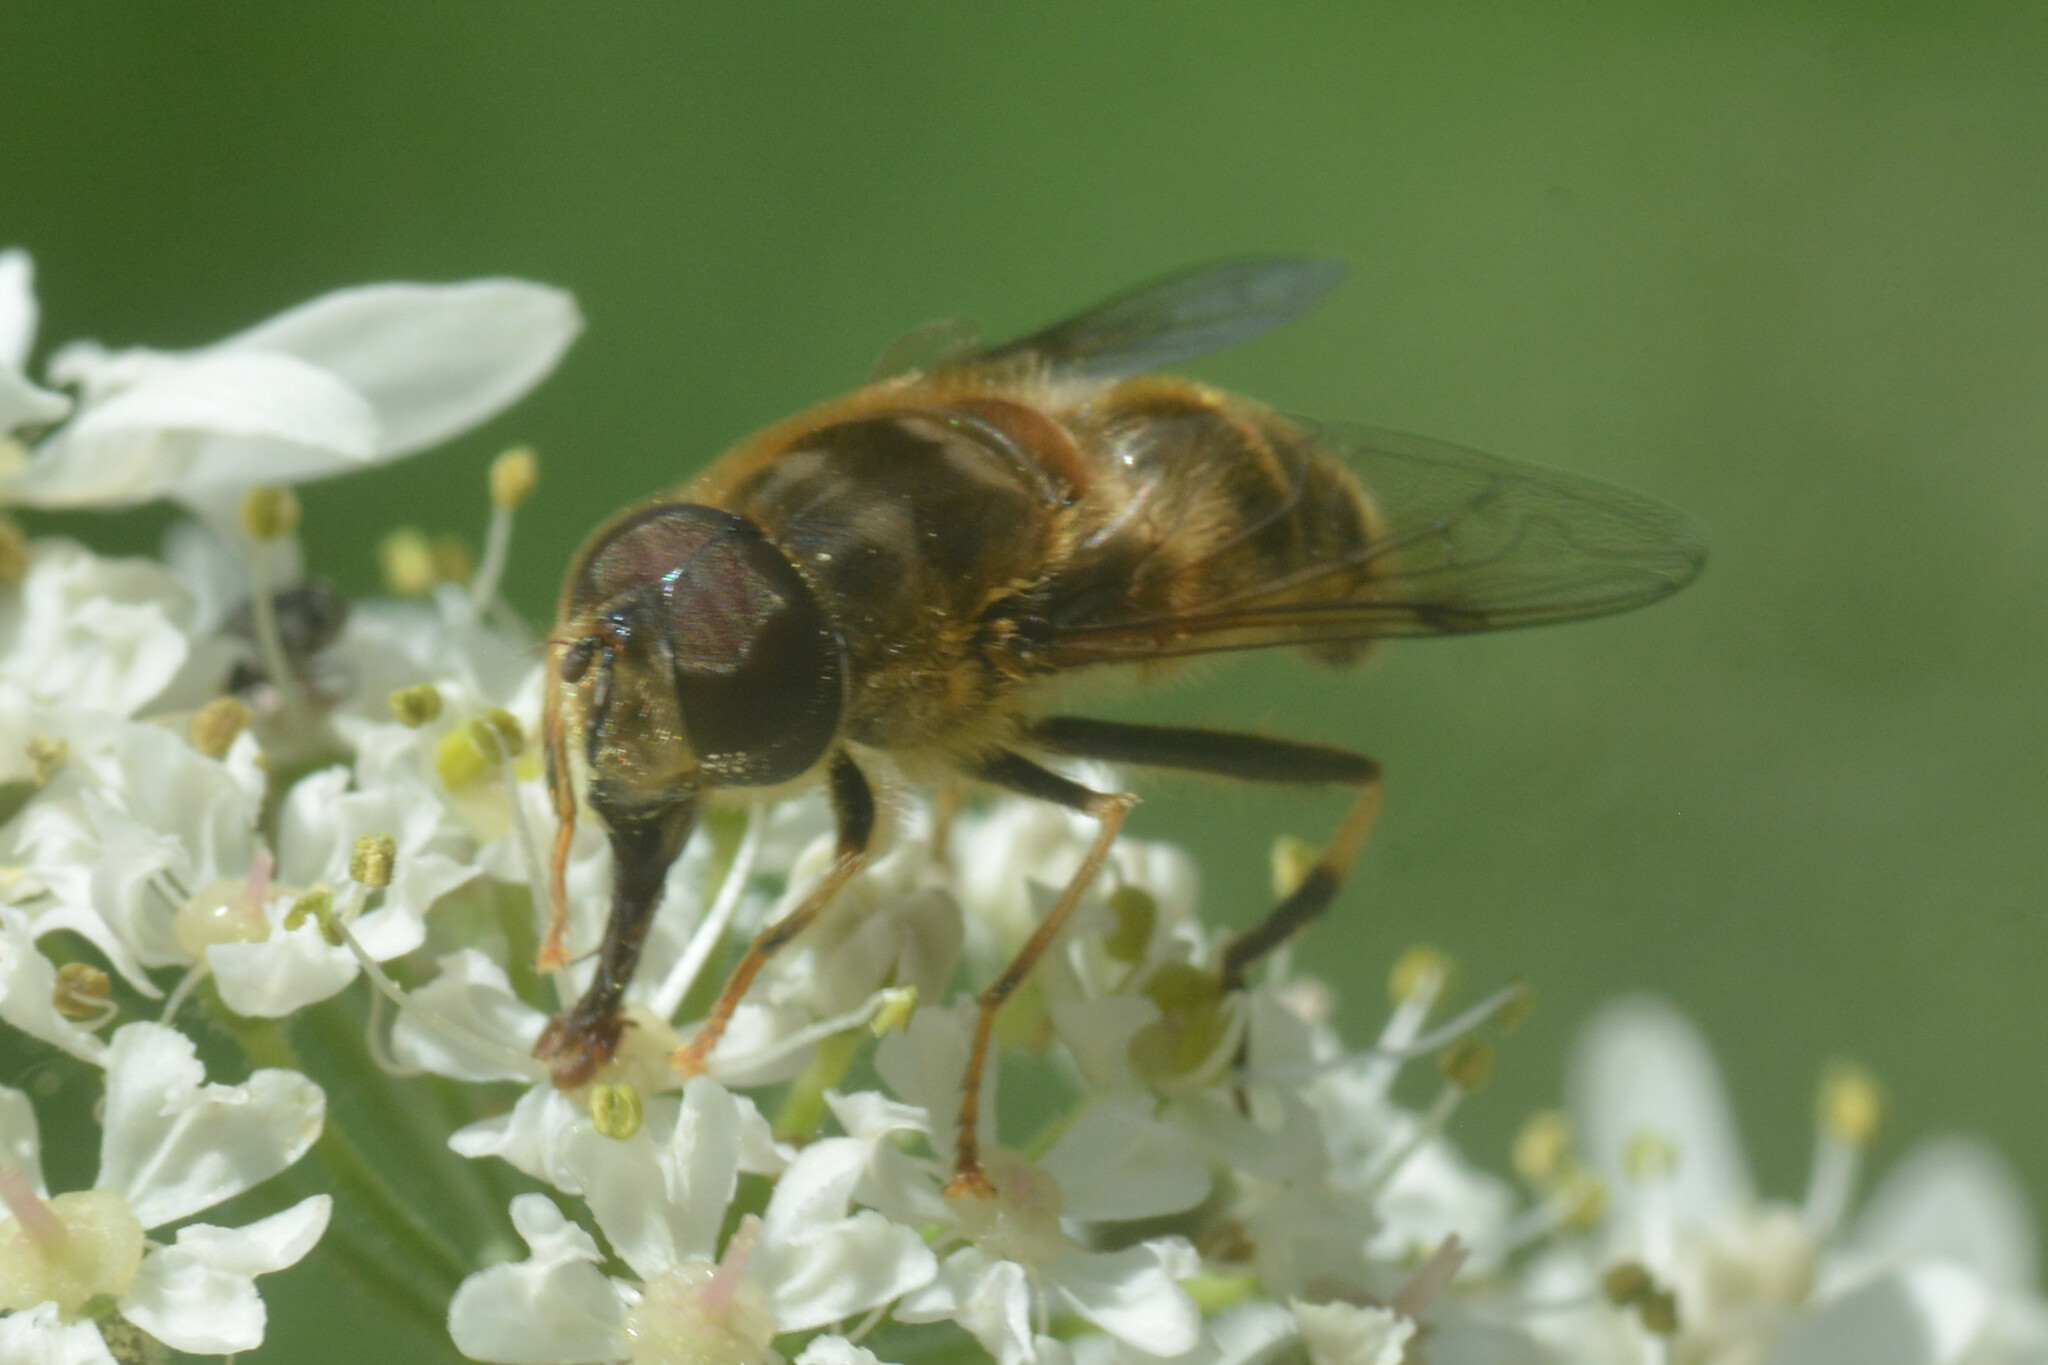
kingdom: Animalia
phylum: Arthropoda
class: Insecta
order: Diptera
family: Syrphidae
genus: Eristalis
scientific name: Eristalis pertinax
